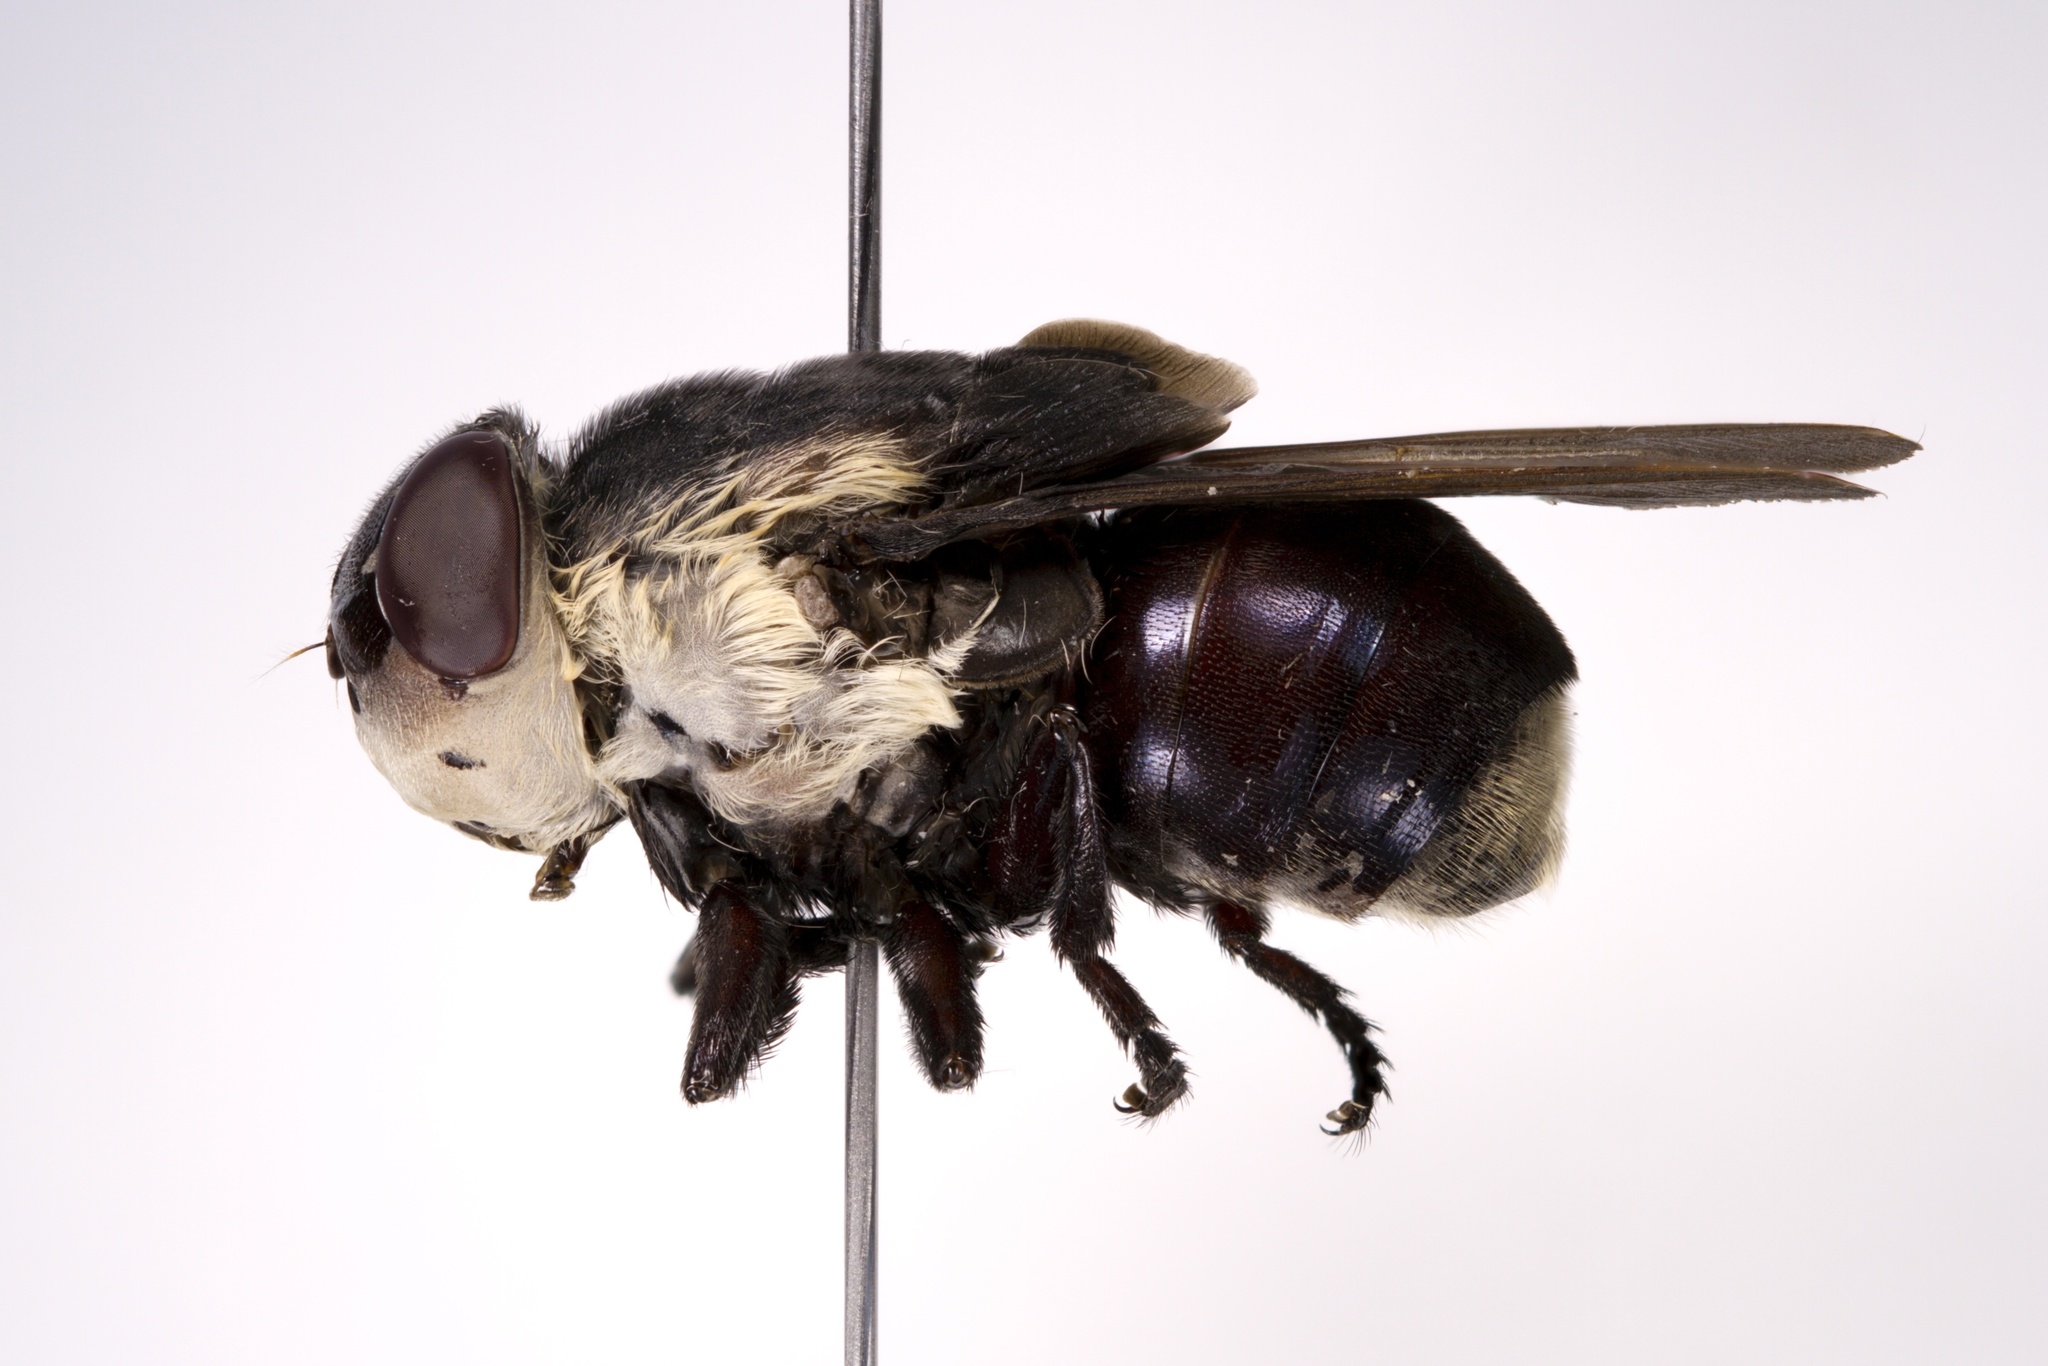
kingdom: Animalia
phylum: Arthropoda
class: Insecta
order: Diptera
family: Oestridae
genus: Cuterebra
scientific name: Cuterebra fontinella
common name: Mouse bot fly
